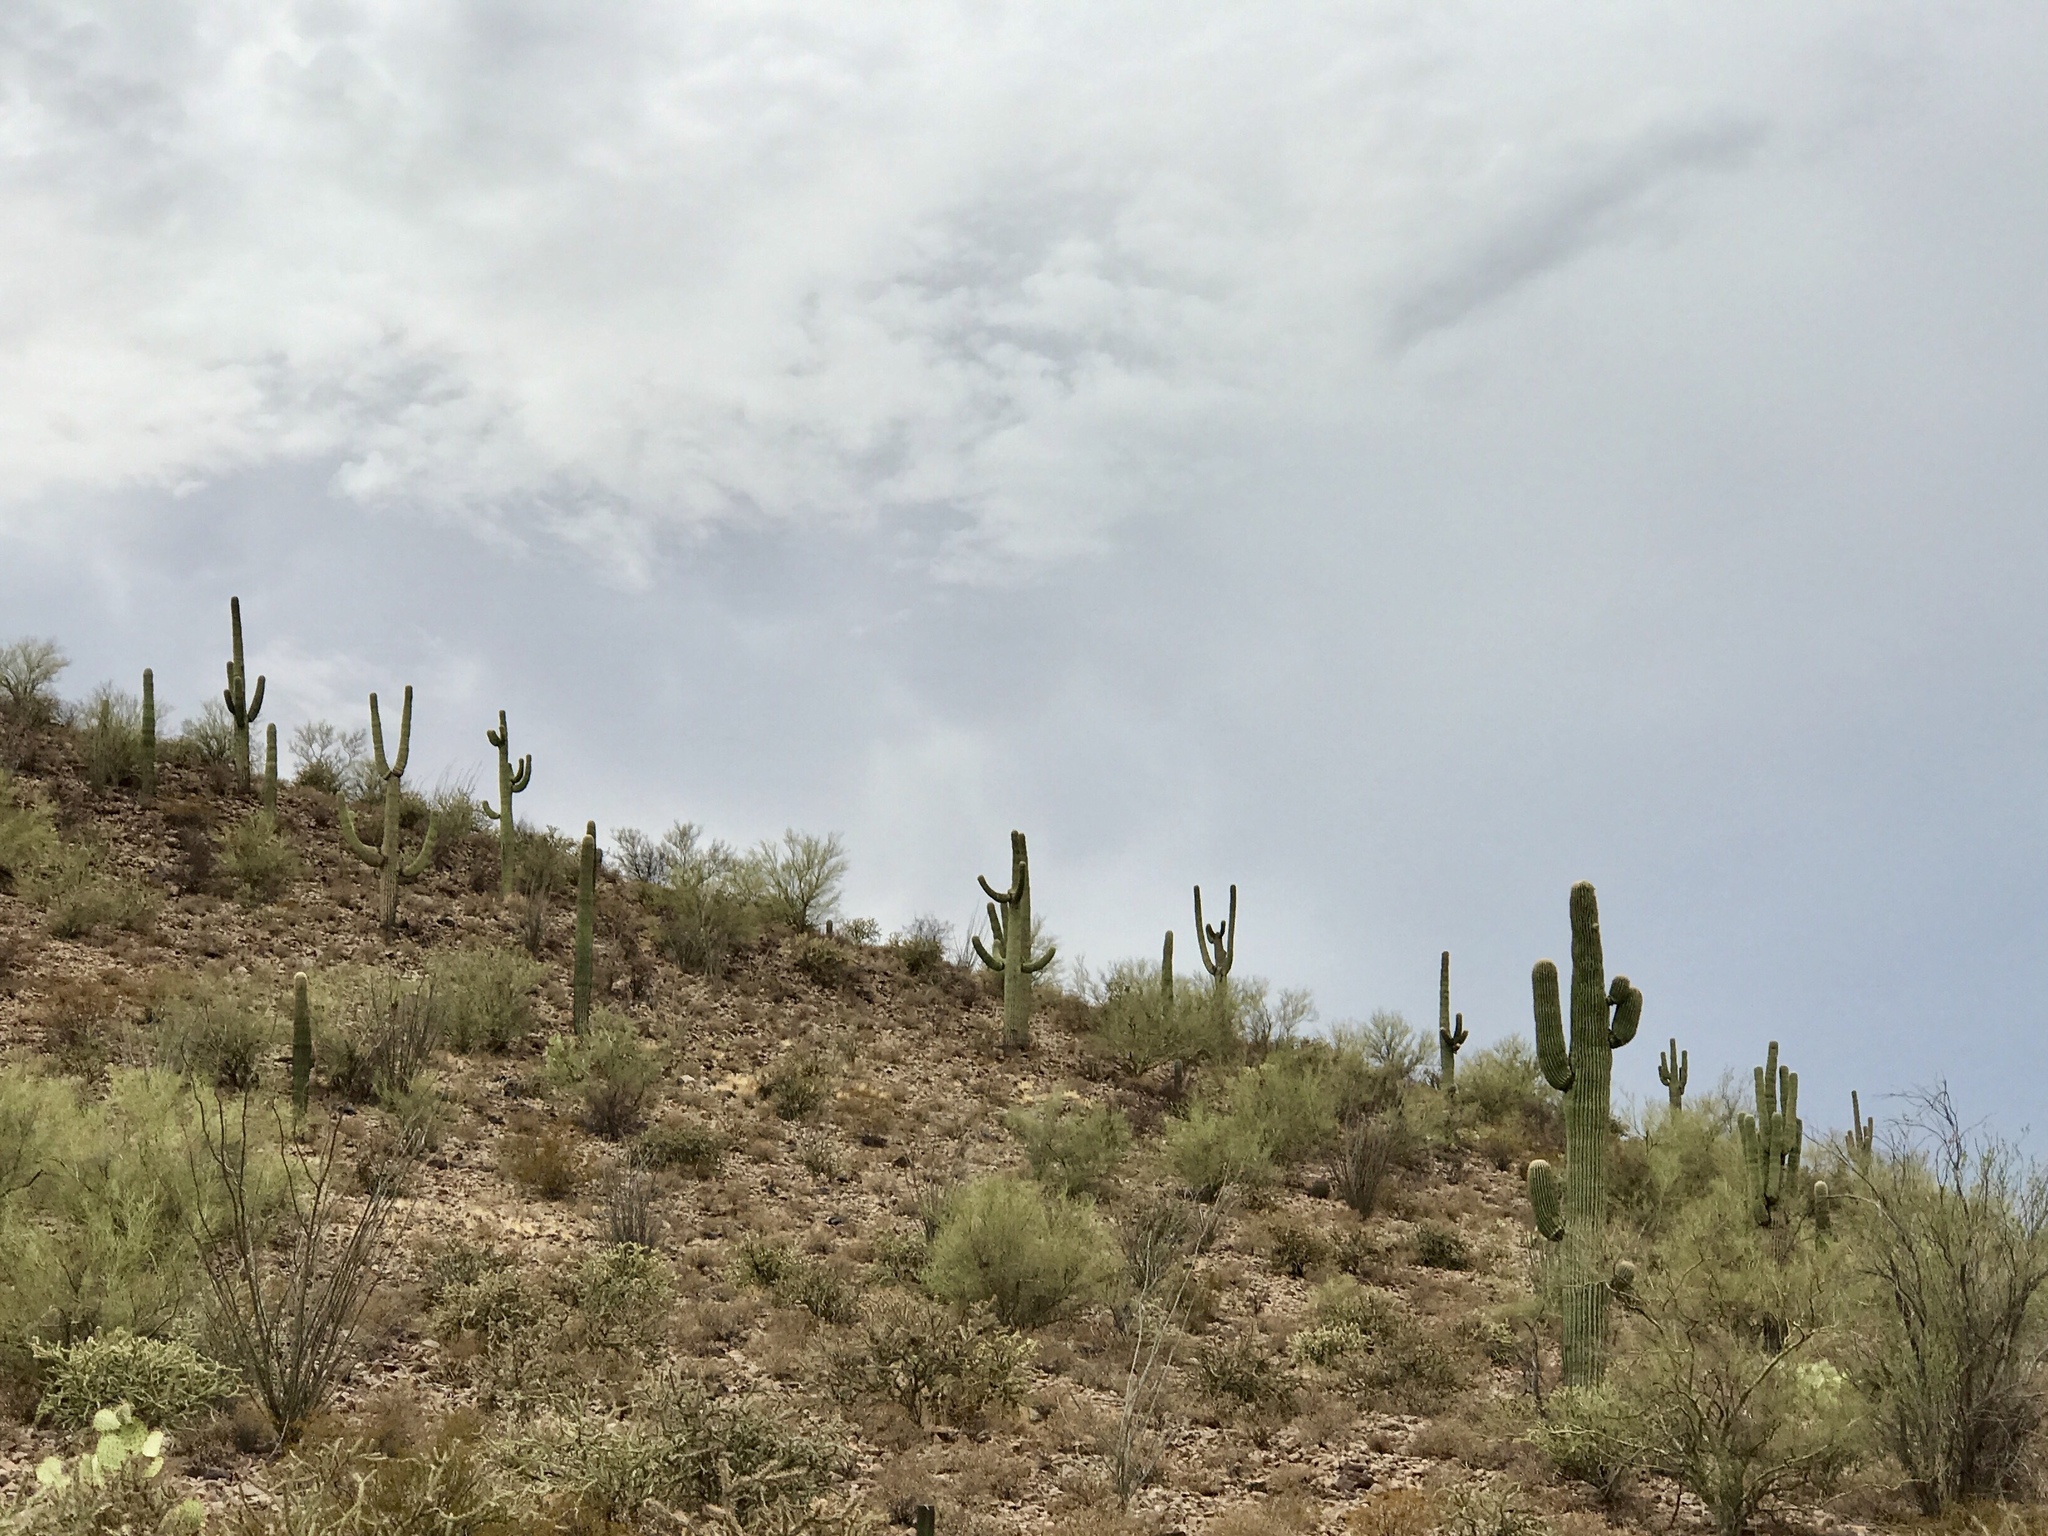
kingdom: Plantae
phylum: Tracheophyta
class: Magnoliopsida
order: Caryophyllales
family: Cactaceae
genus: Carnegiea
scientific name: Carnegiea gigantea
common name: Saguaro
